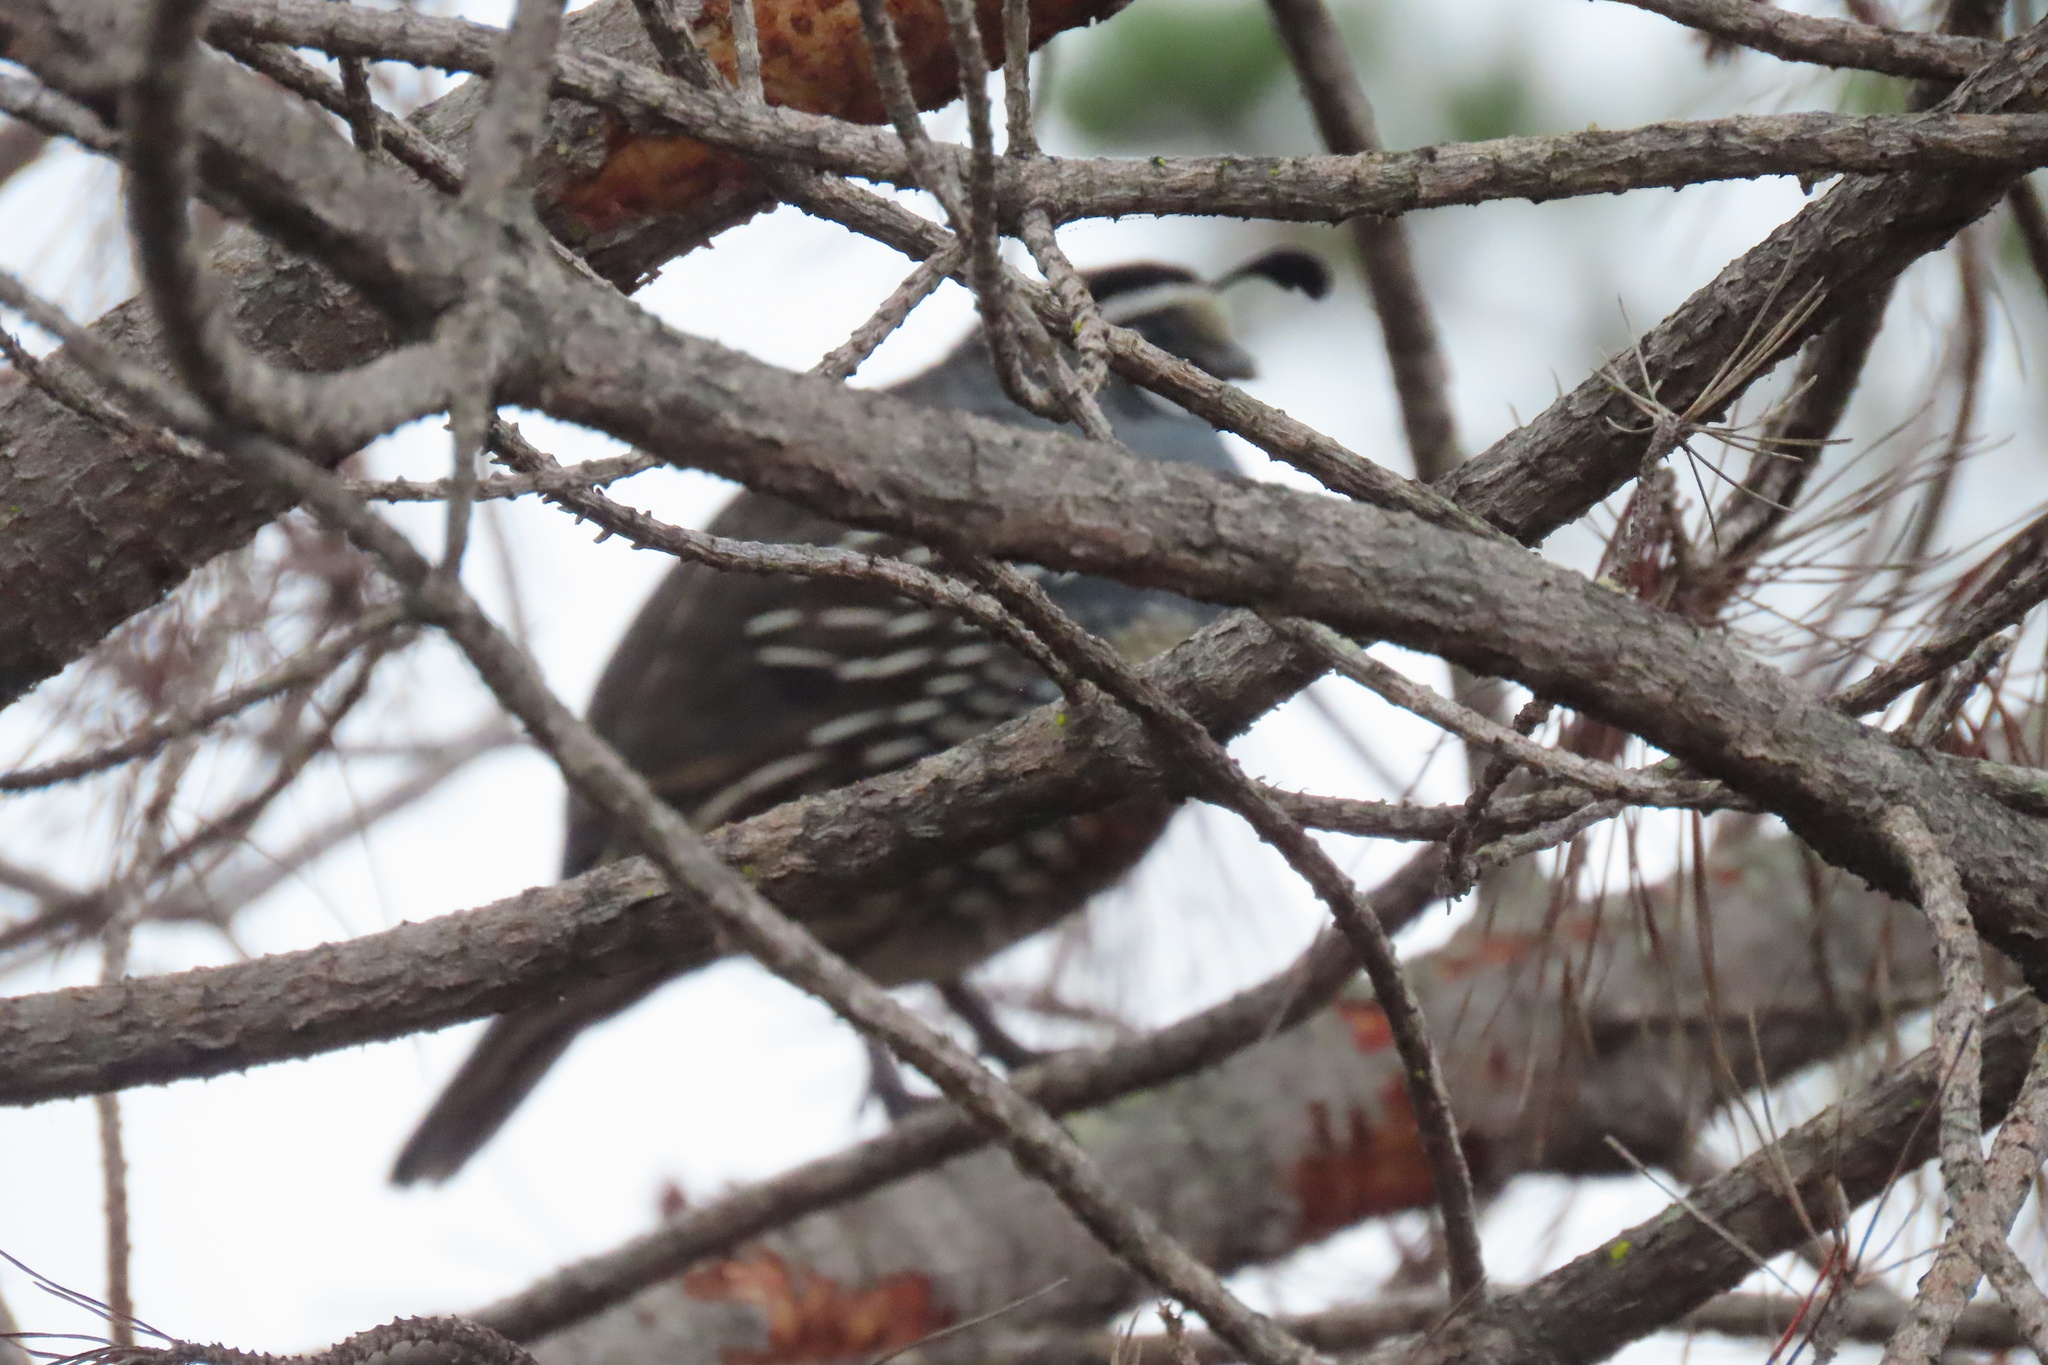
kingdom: Animalia
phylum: Chordata
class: Aves
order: Galliformes
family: Odontophoridae
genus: Callipepla
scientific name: Callipepla californica
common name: California quail
